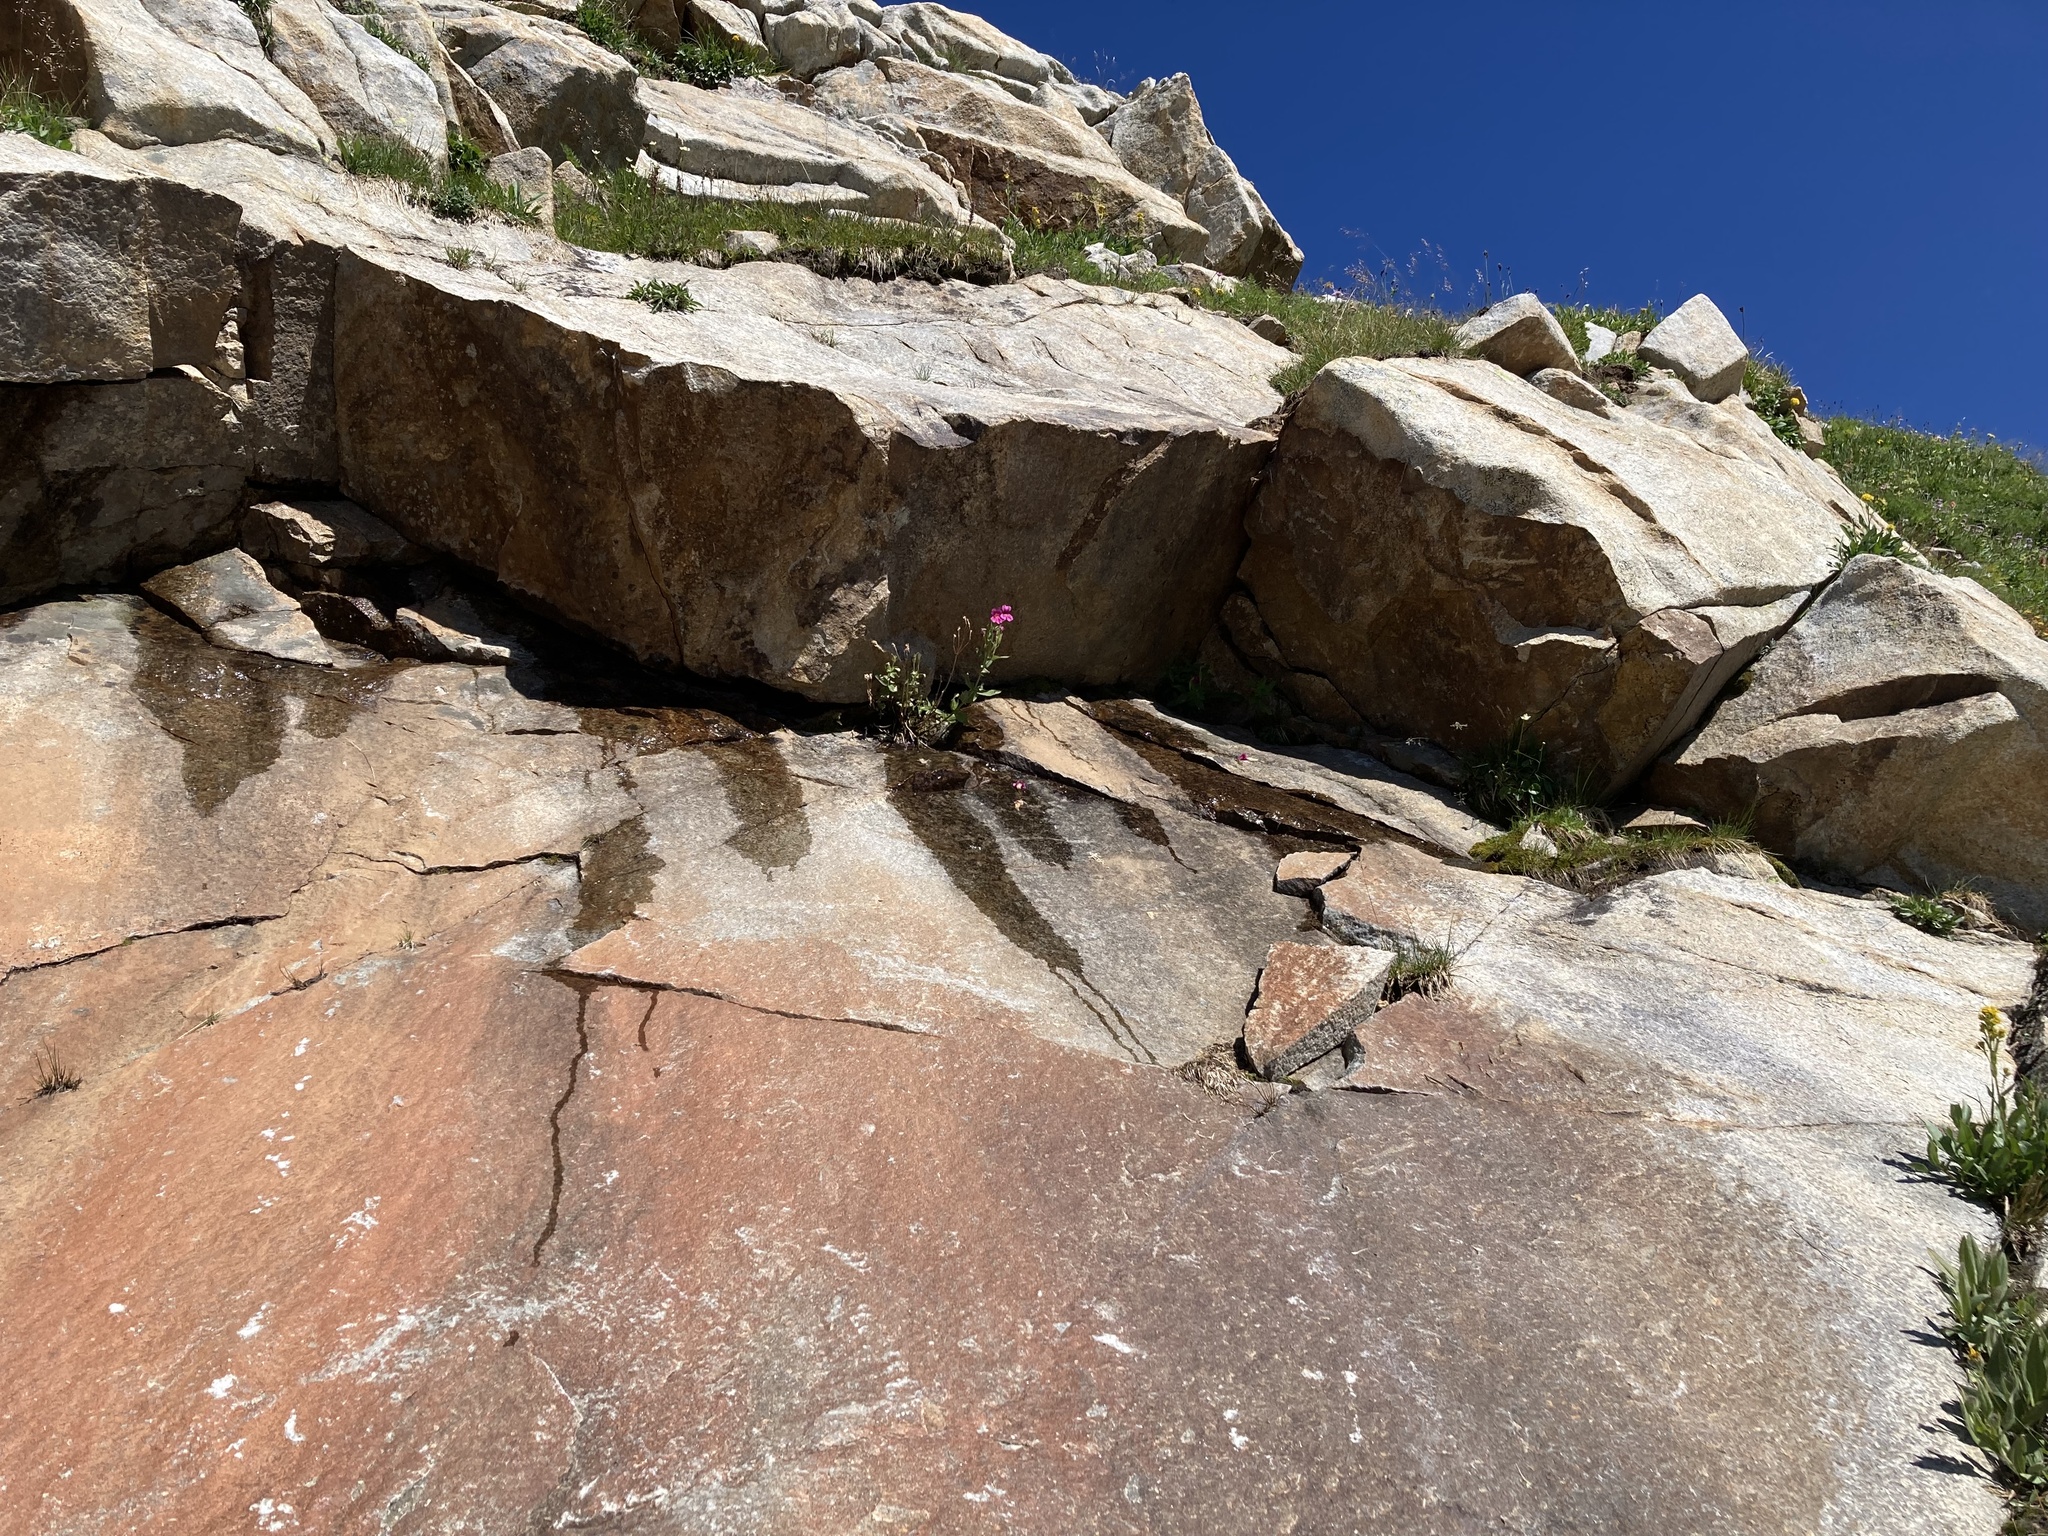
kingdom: Plantae
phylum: Tracheophyta
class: Magnoliopsida
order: Lamiales
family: Phrymaceae
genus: Erythranthe
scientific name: Erythranthe lewisii
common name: Lewis's monkey-flower
